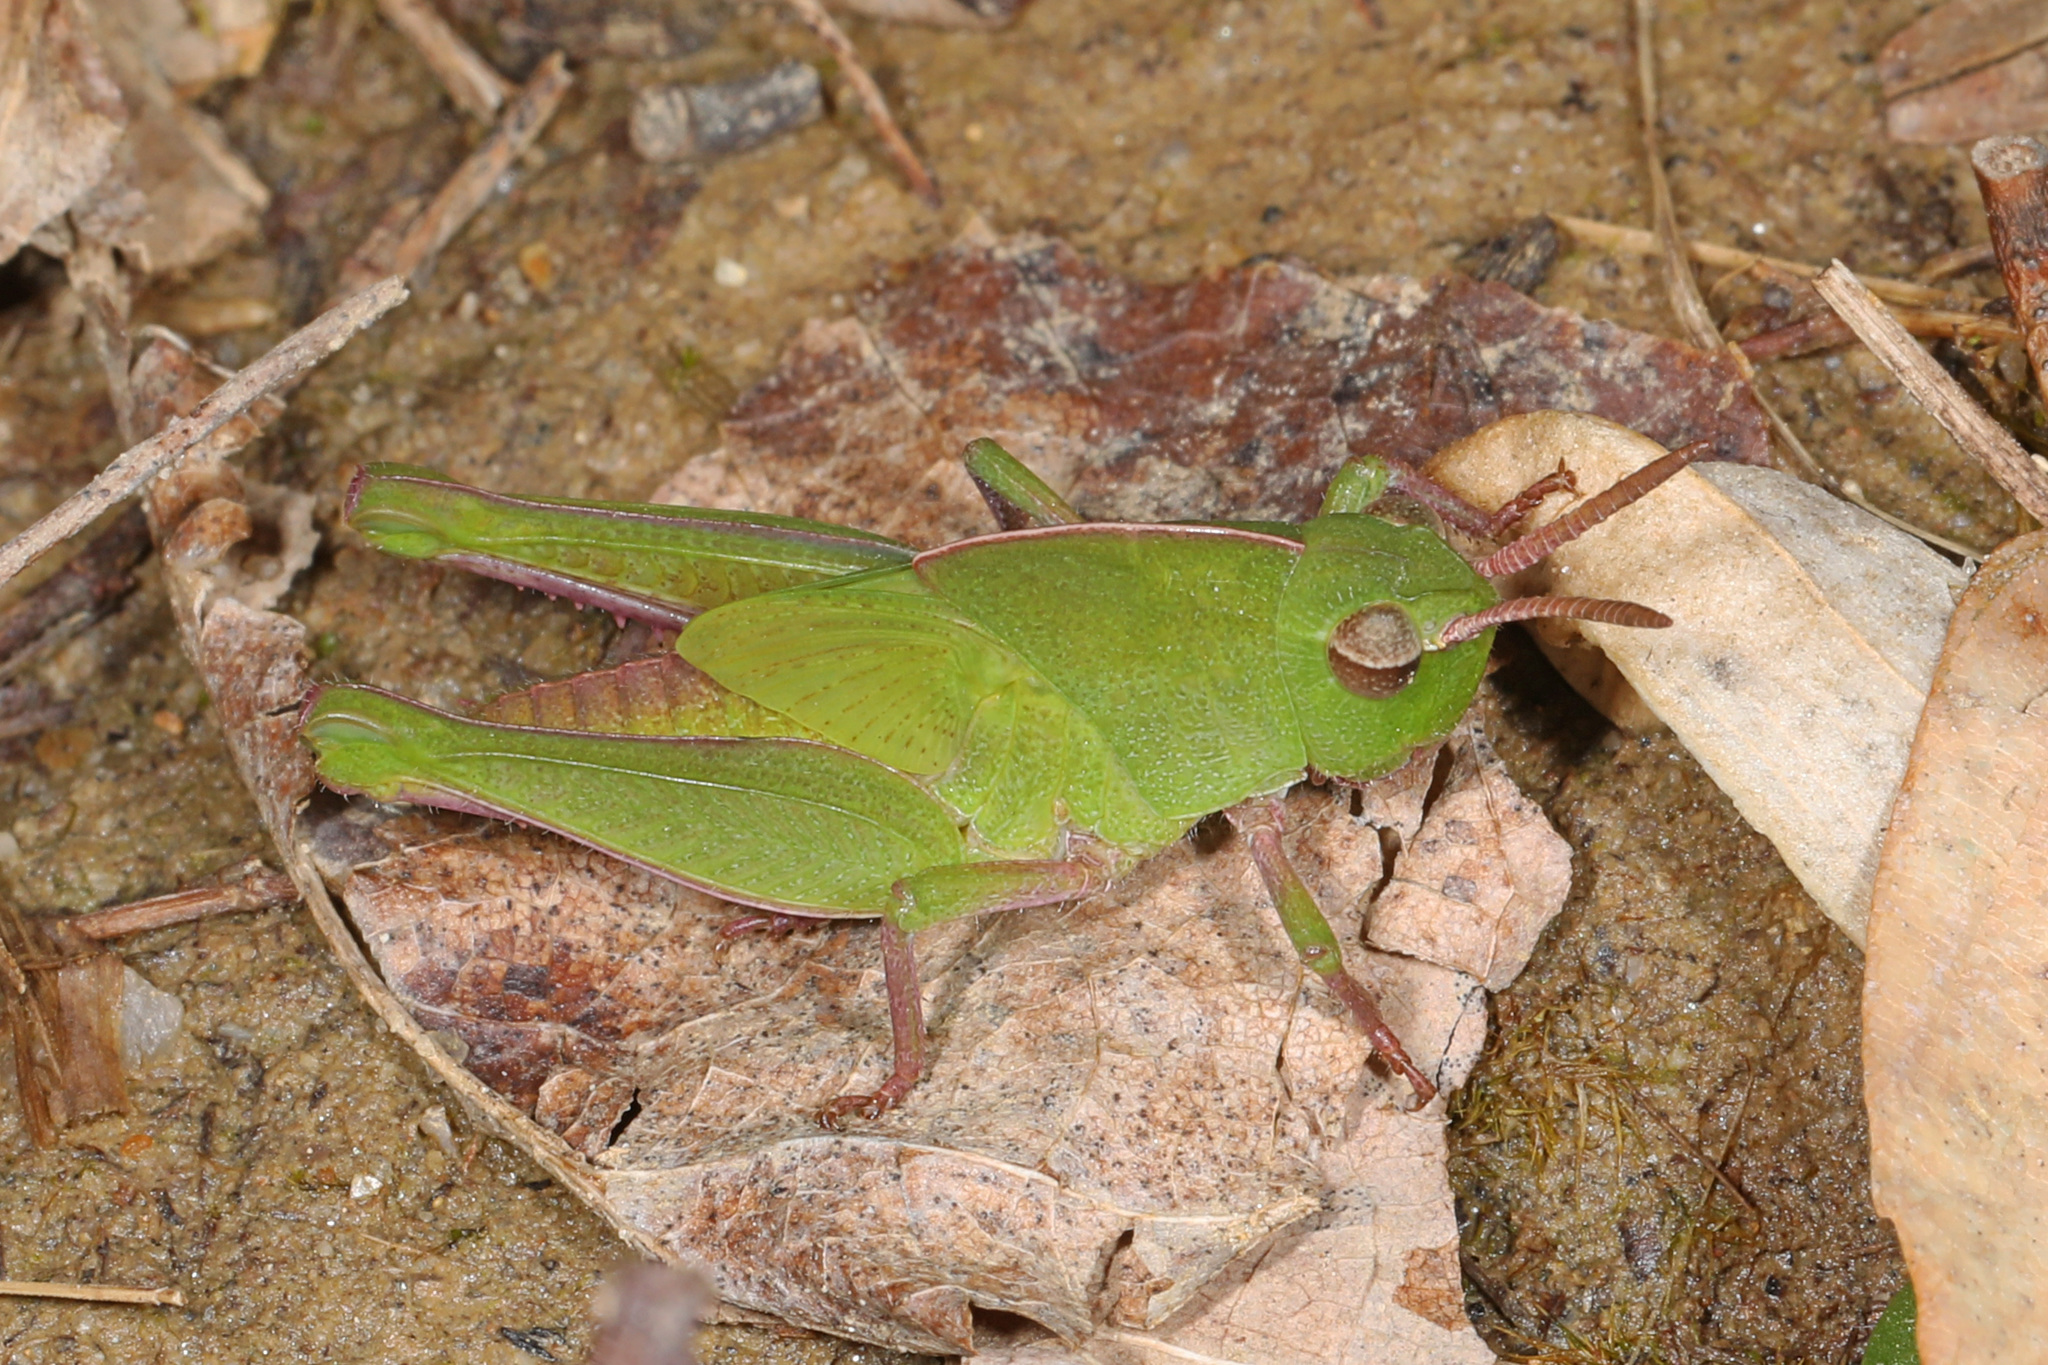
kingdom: Animalia
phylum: Arthropoda
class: Insecta
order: Orthoptera
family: Acrididae
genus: Chortophaga
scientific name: Chortophaga viridifasciata
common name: Green-striped grasshopper
